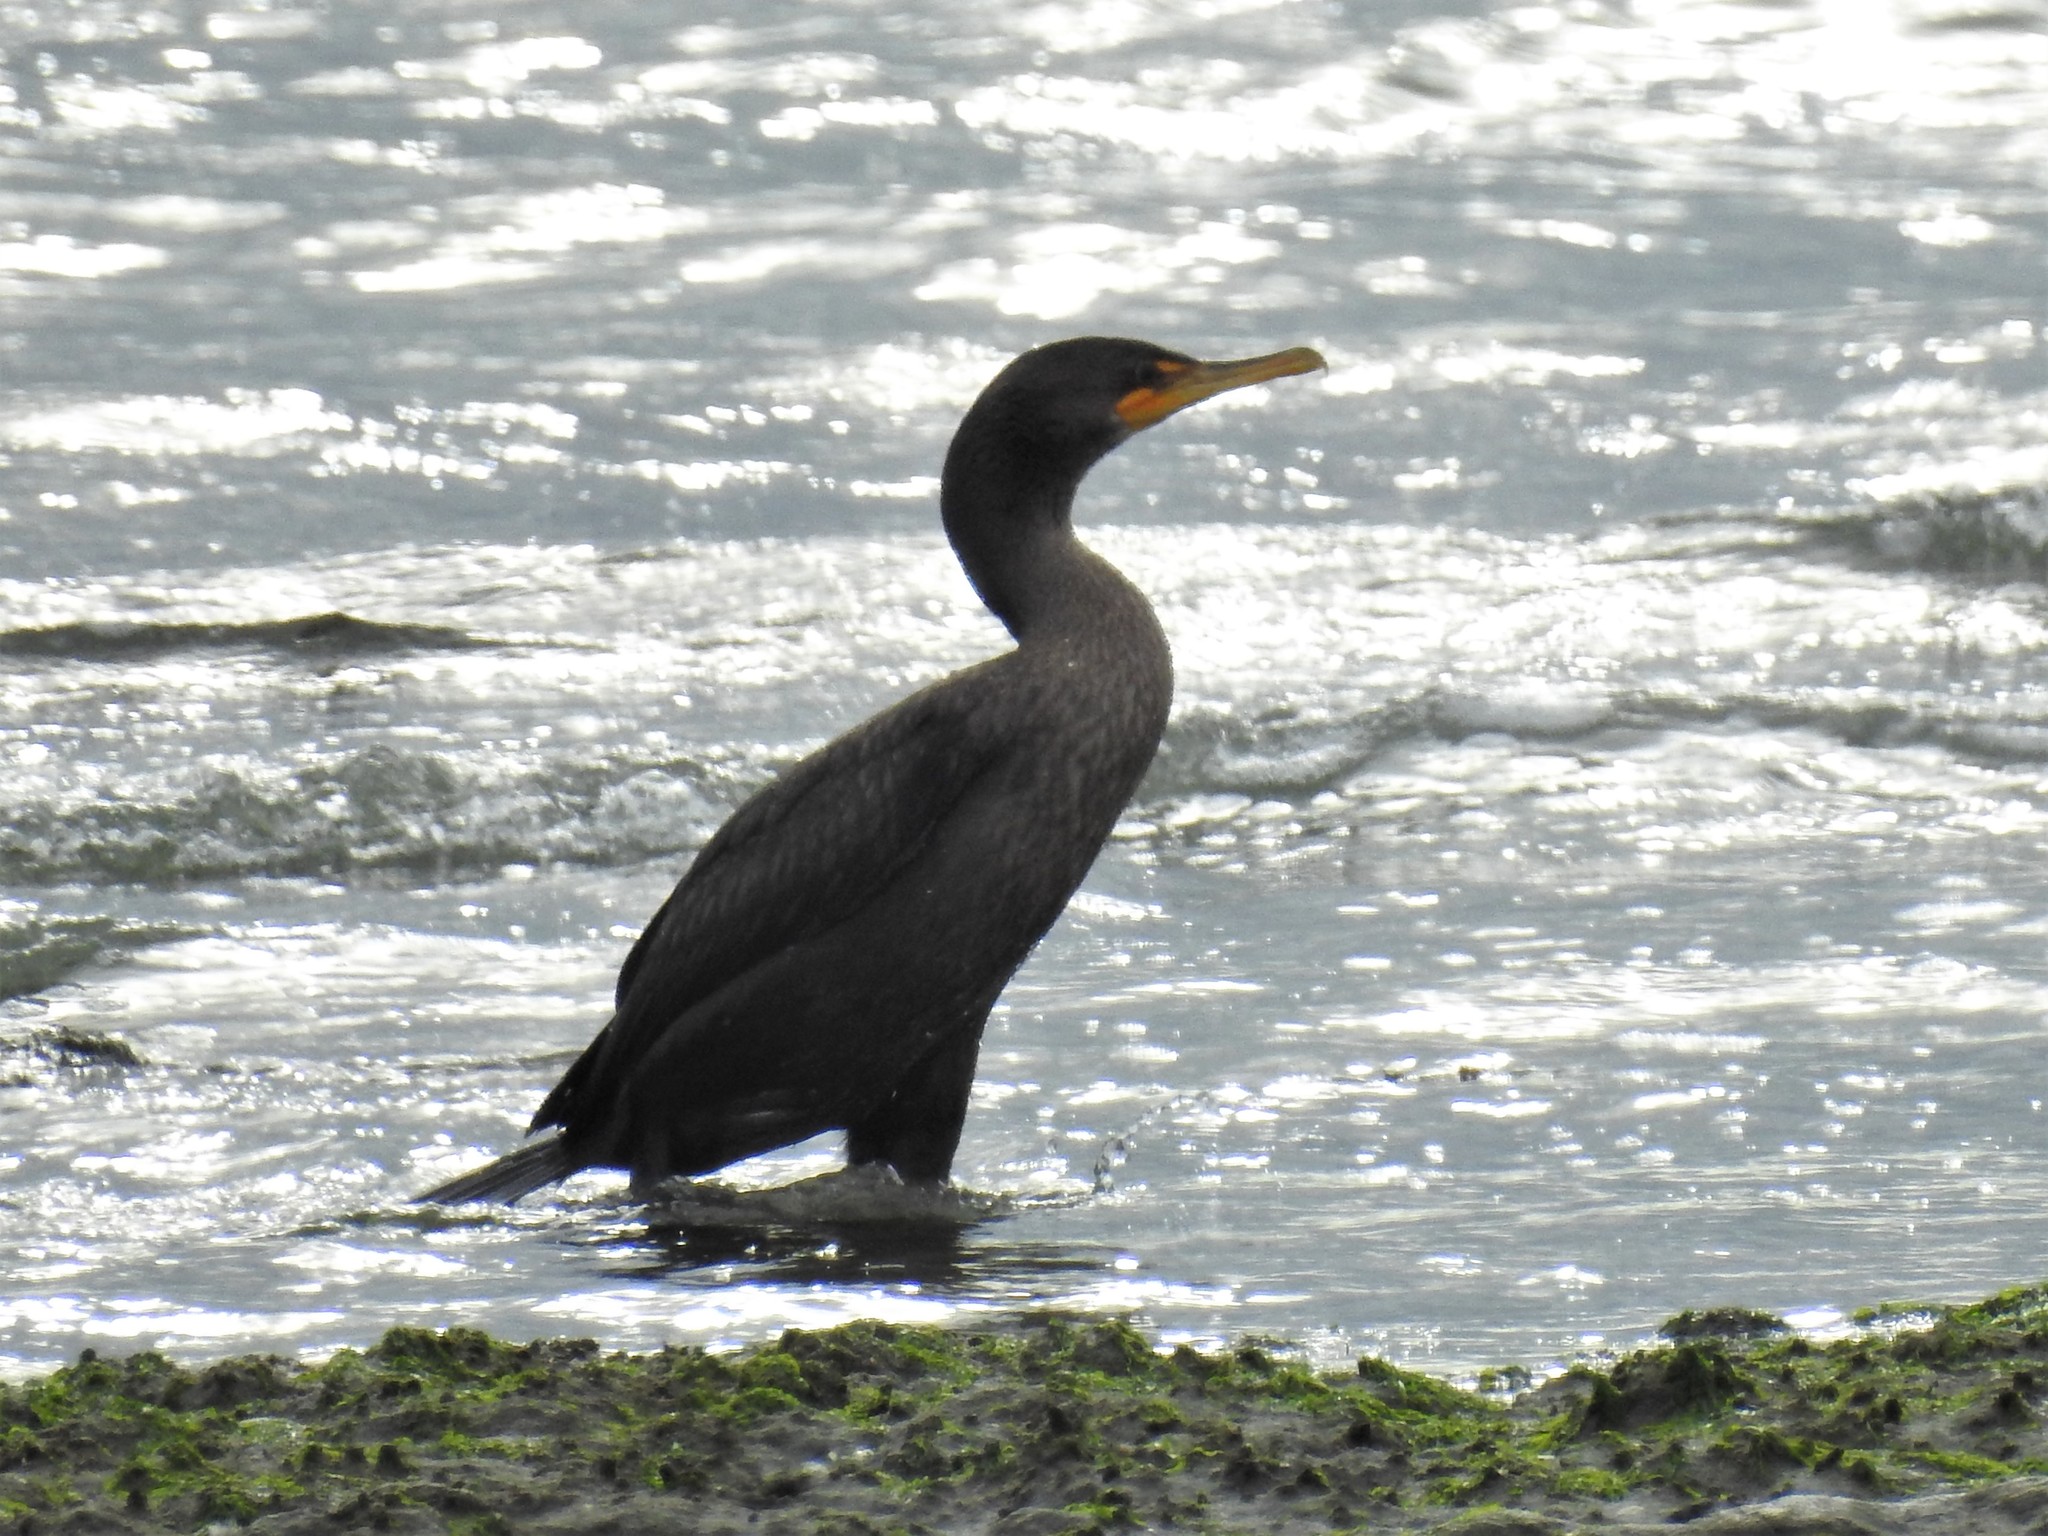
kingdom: Animalia
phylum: Chordata
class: Aves
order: Suliformes
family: Phalacrocoracidae
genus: Phalacrocorax
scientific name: Phalacrocorax auritus
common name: Double-crested cormorant
